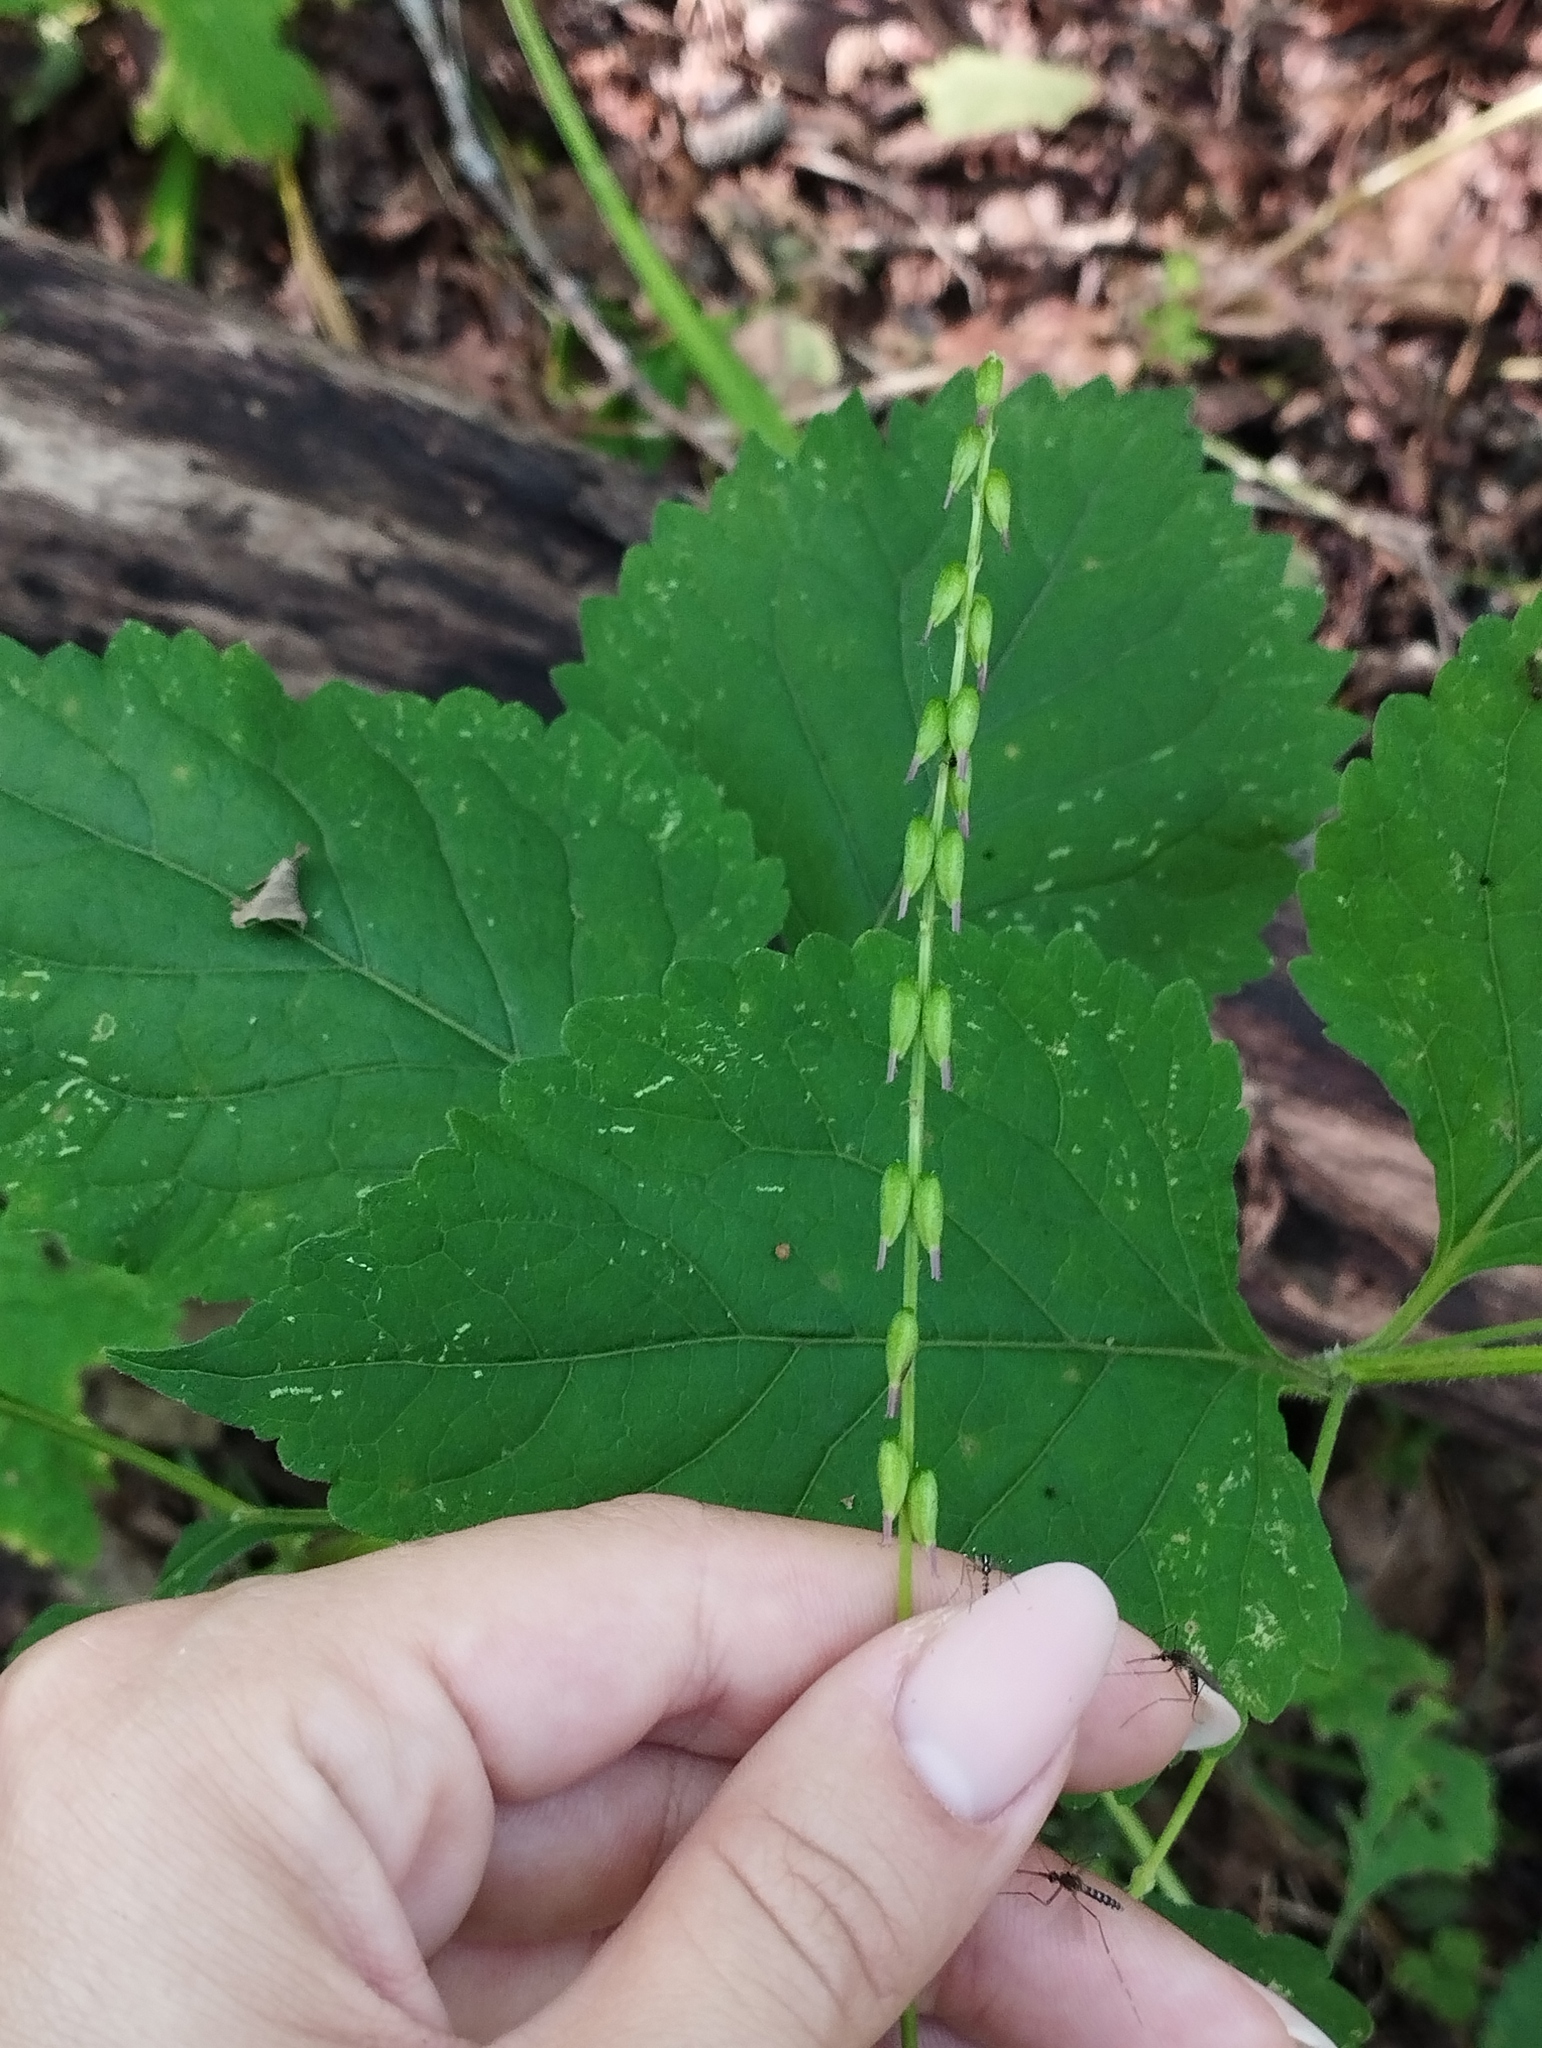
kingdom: Plantae
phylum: Tracheophyta
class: Magnoliopsida
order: Lamiales
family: Phrymaceae
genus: Phryma
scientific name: Phryma nana
